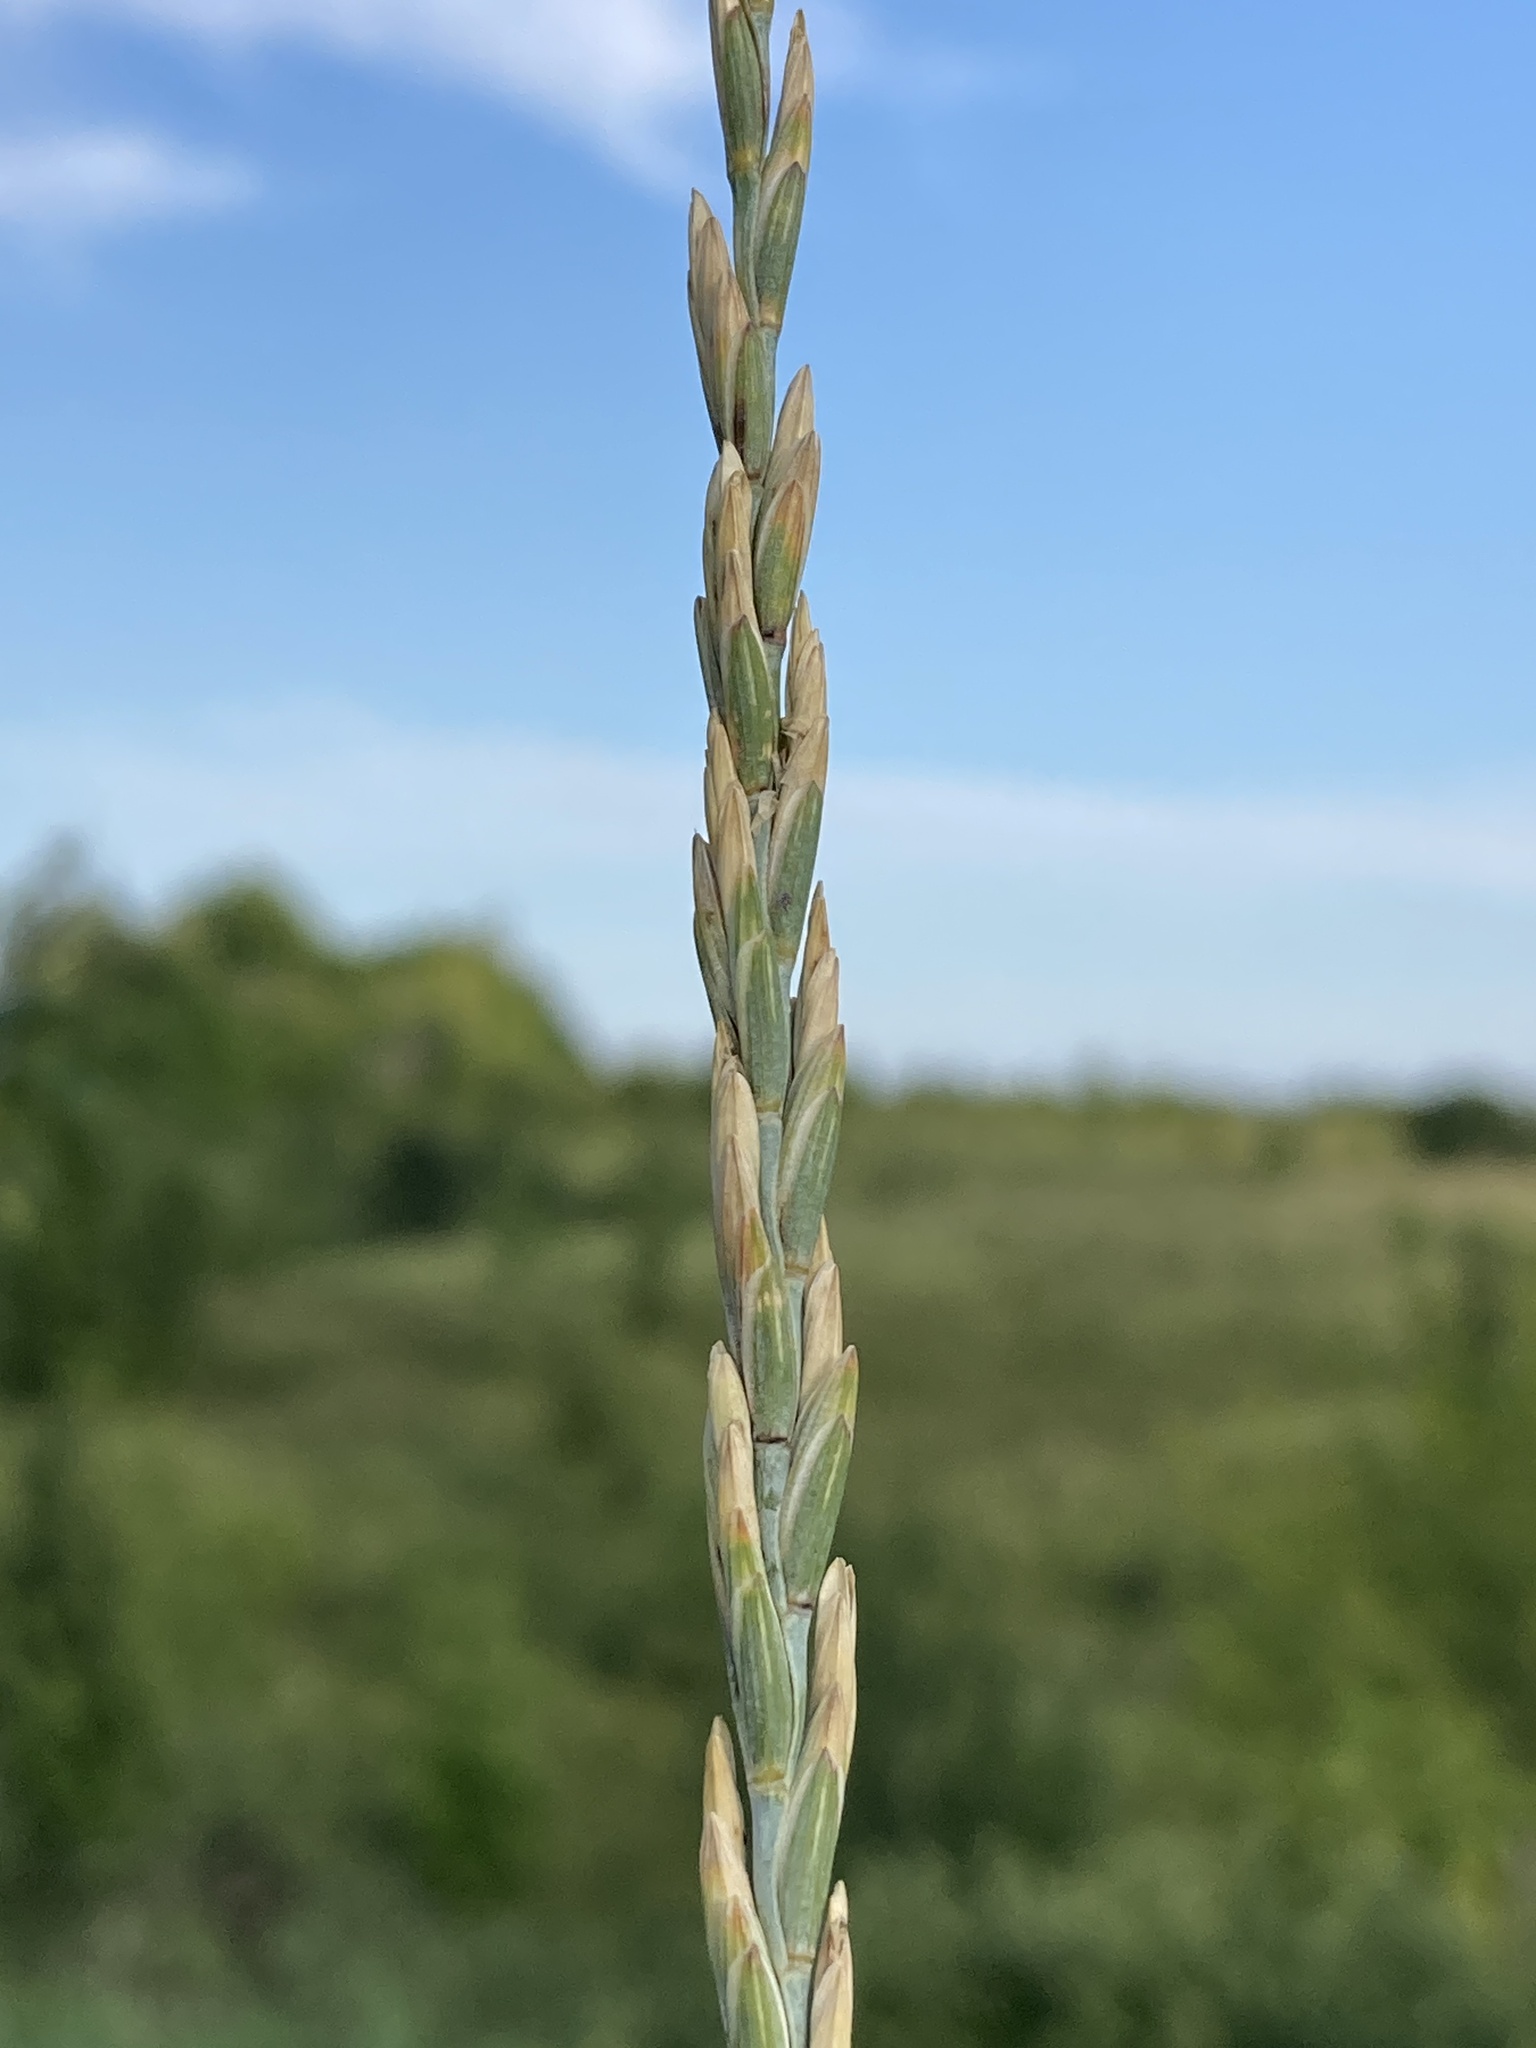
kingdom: Plantae
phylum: Tracheophyta
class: Liliopsida
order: Poales
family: Poaceae
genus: Thinopyrum
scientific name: Thinopyrum intermedium
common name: Intermediate wheatgrass
